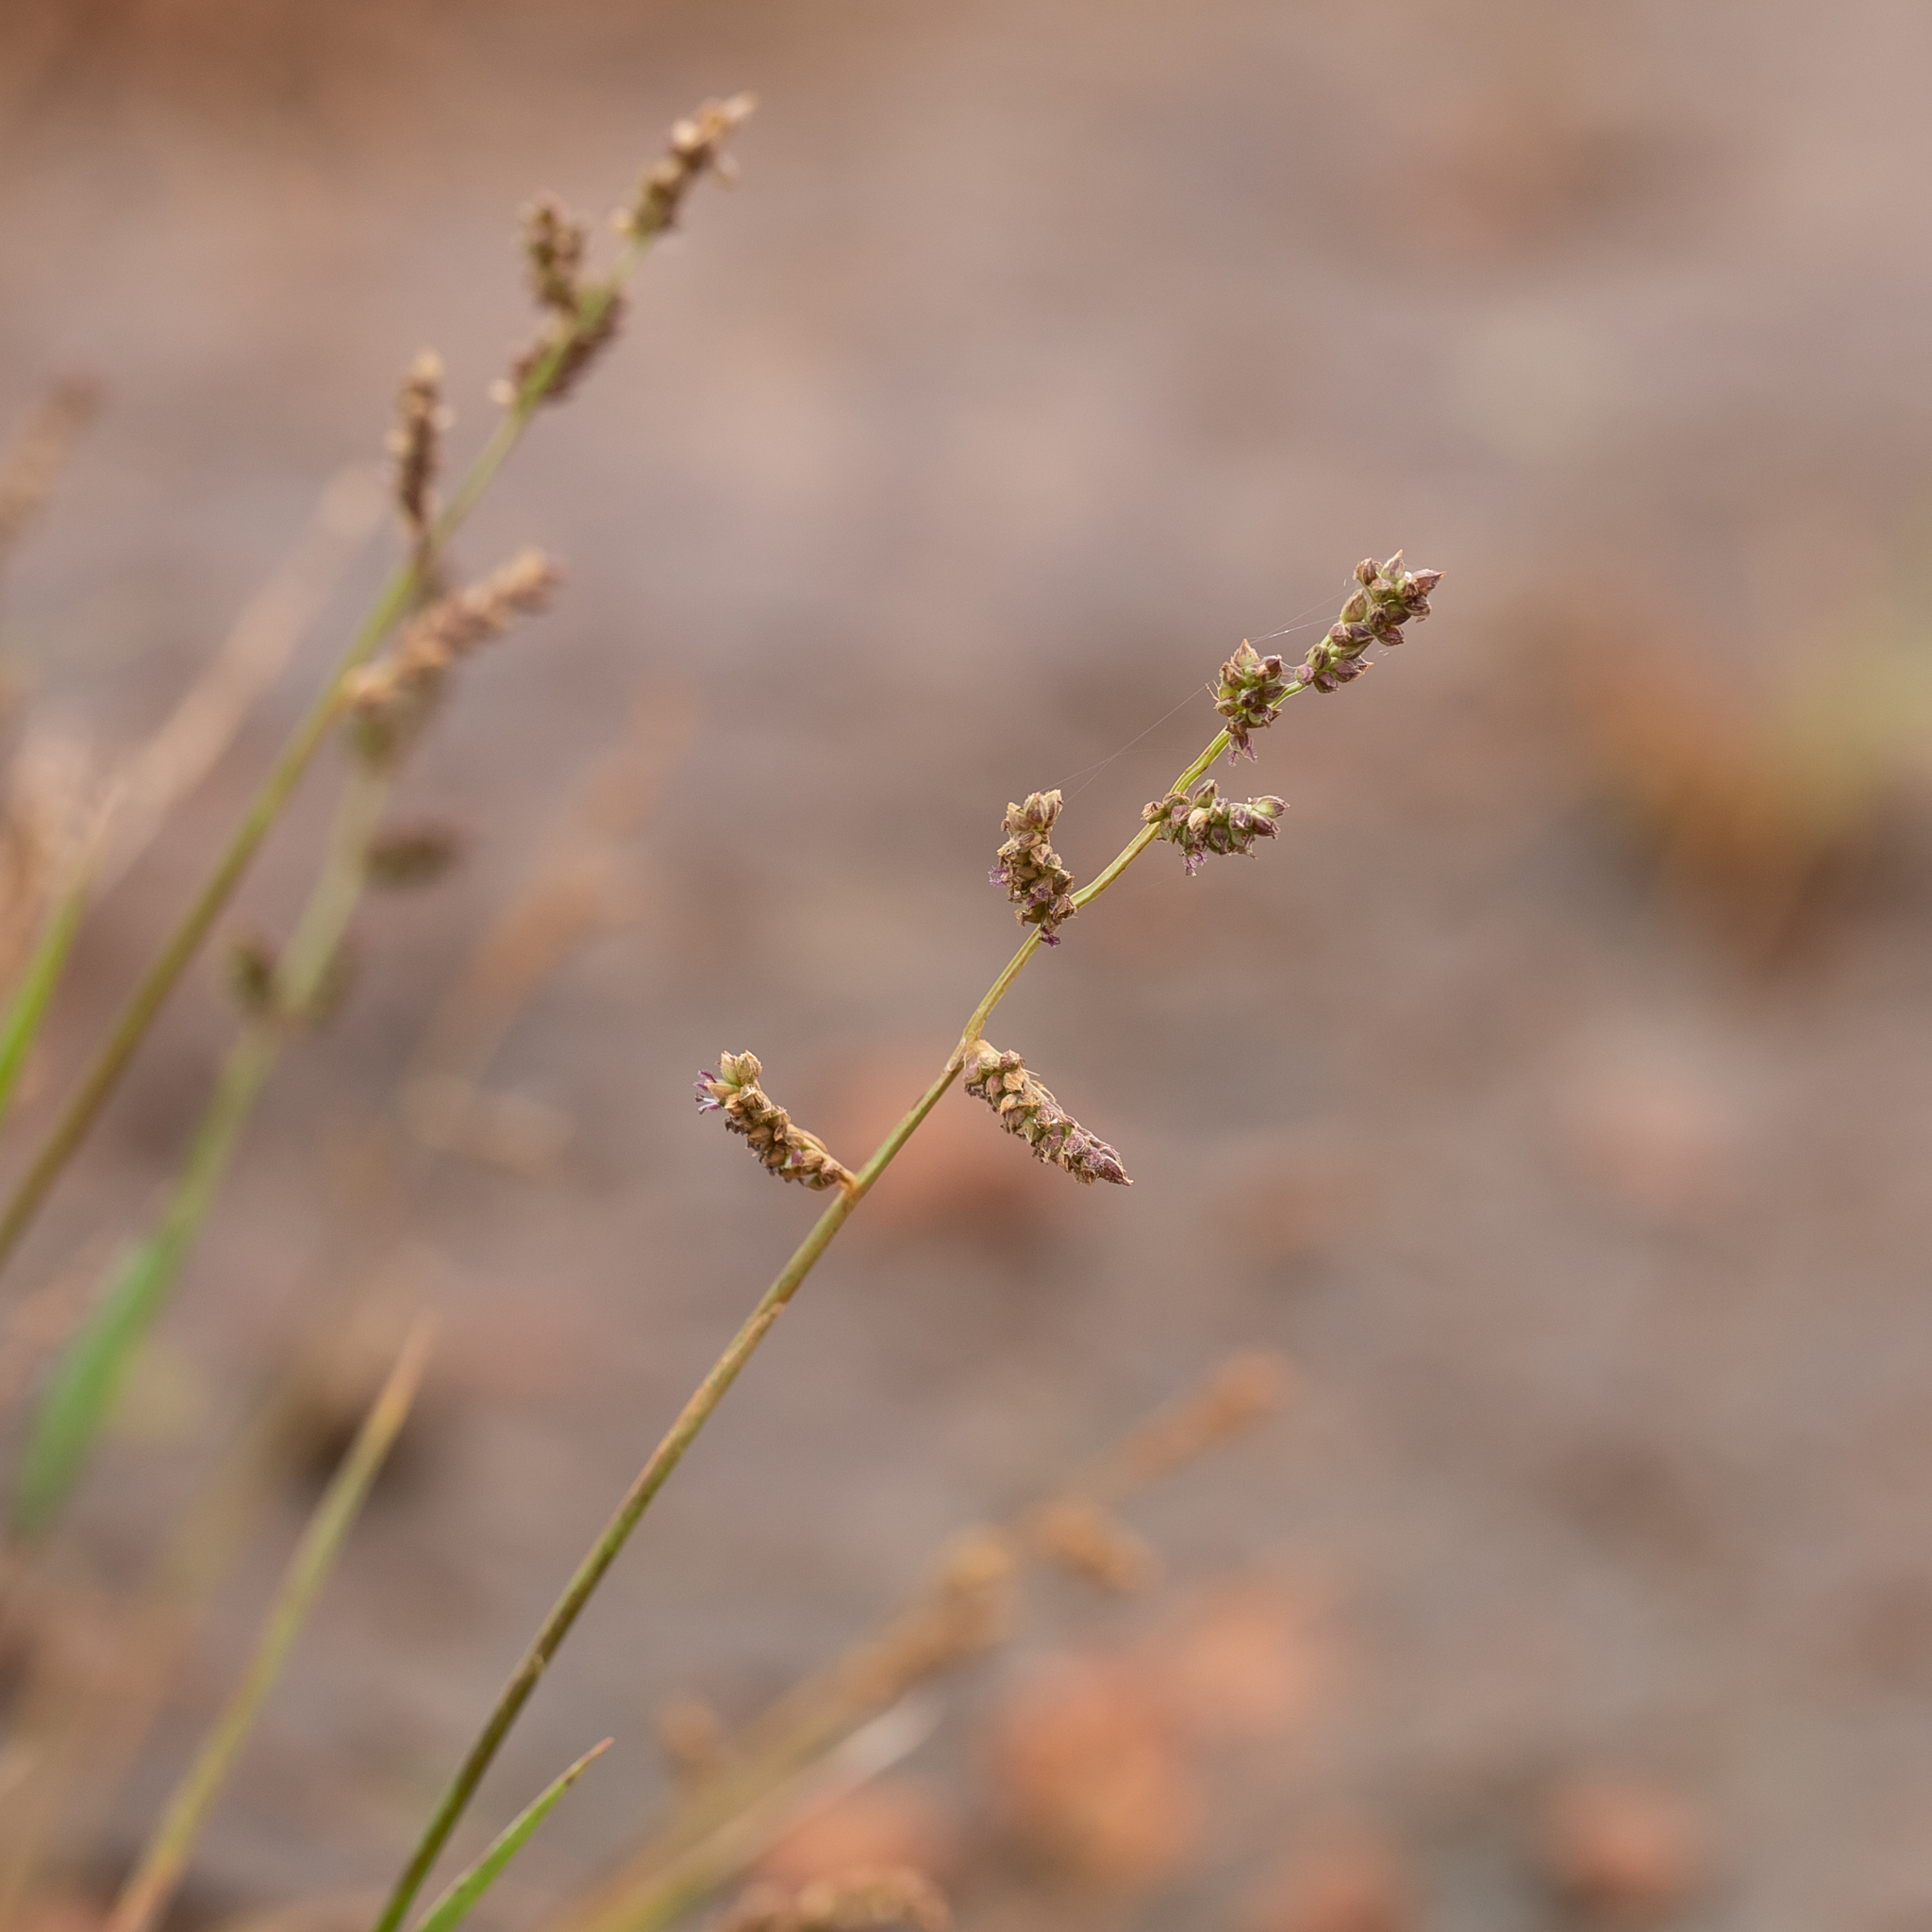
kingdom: Plantae
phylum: Tracheophyta
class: Liliopsida
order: Poales
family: Poaceae
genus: Echinochloa
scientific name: Echinochloa colonum
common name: Jungle rice
